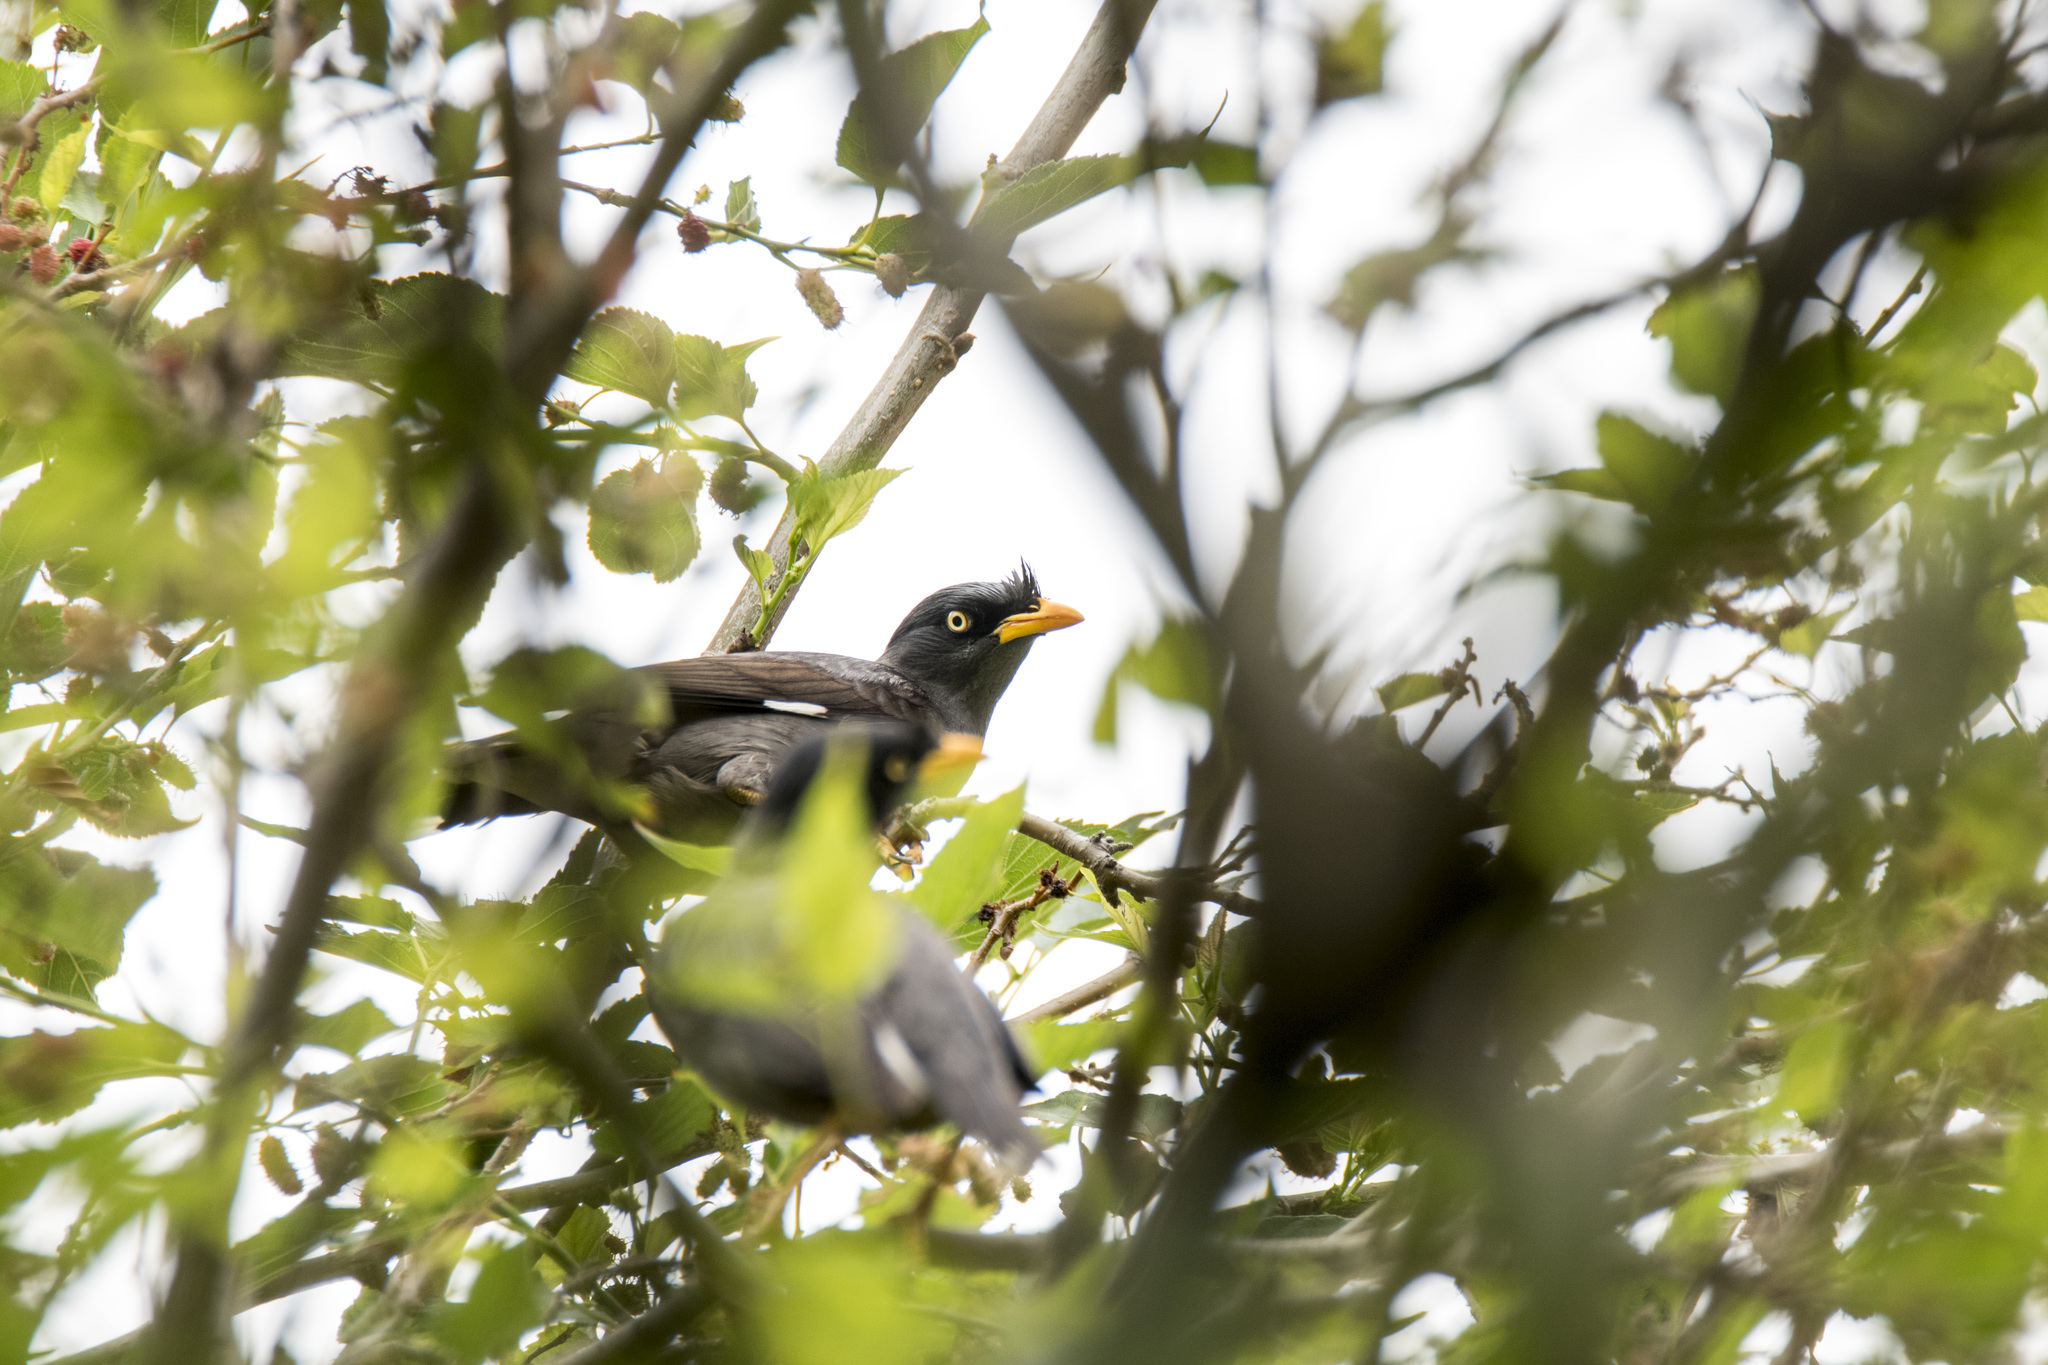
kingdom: Animalia
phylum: Chordata
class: Aves
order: Passeriformes
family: Sturnidae
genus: Acridotheres
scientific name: Acridotheres javanicus
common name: Javan myna
